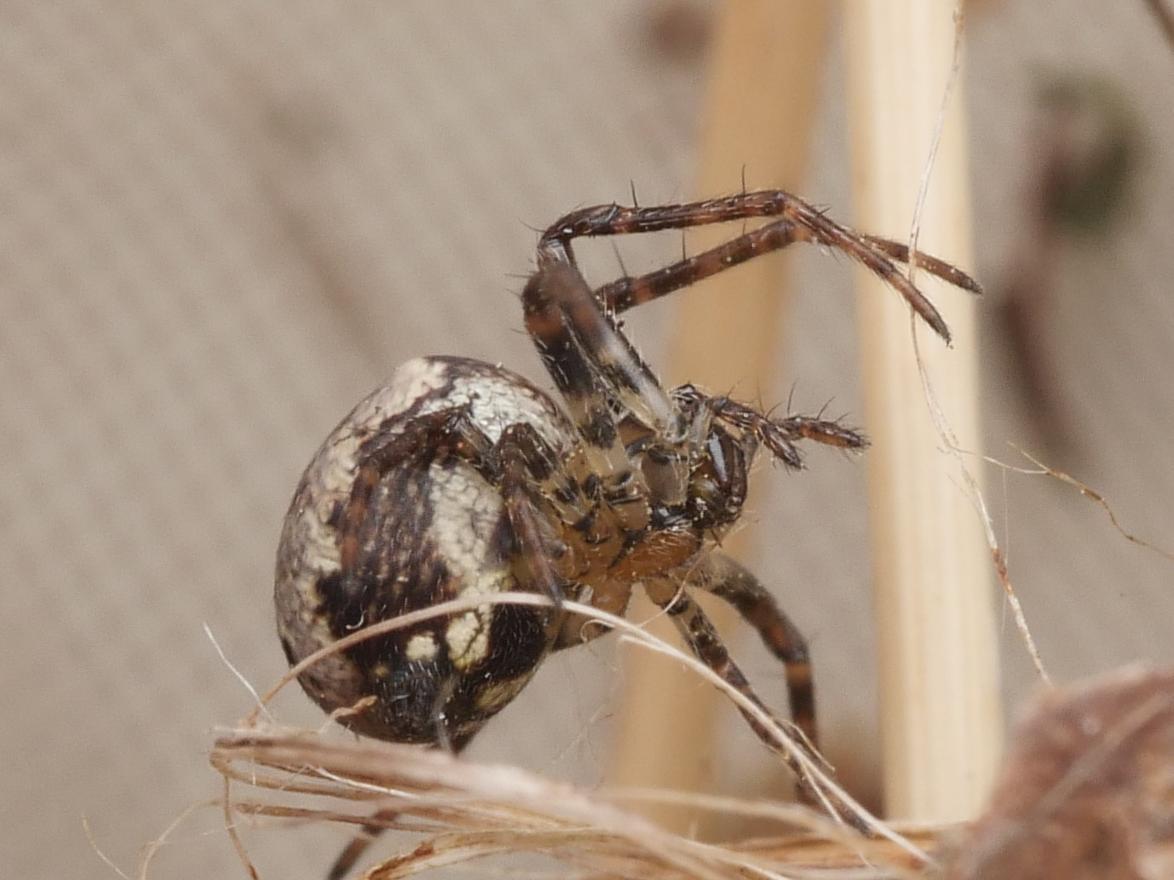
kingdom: Animalia
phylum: Arthropoda
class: Arachnida
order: Araneae
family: Araneidae
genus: Zilla
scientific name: Zilla diodia
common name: Zilla diodia
